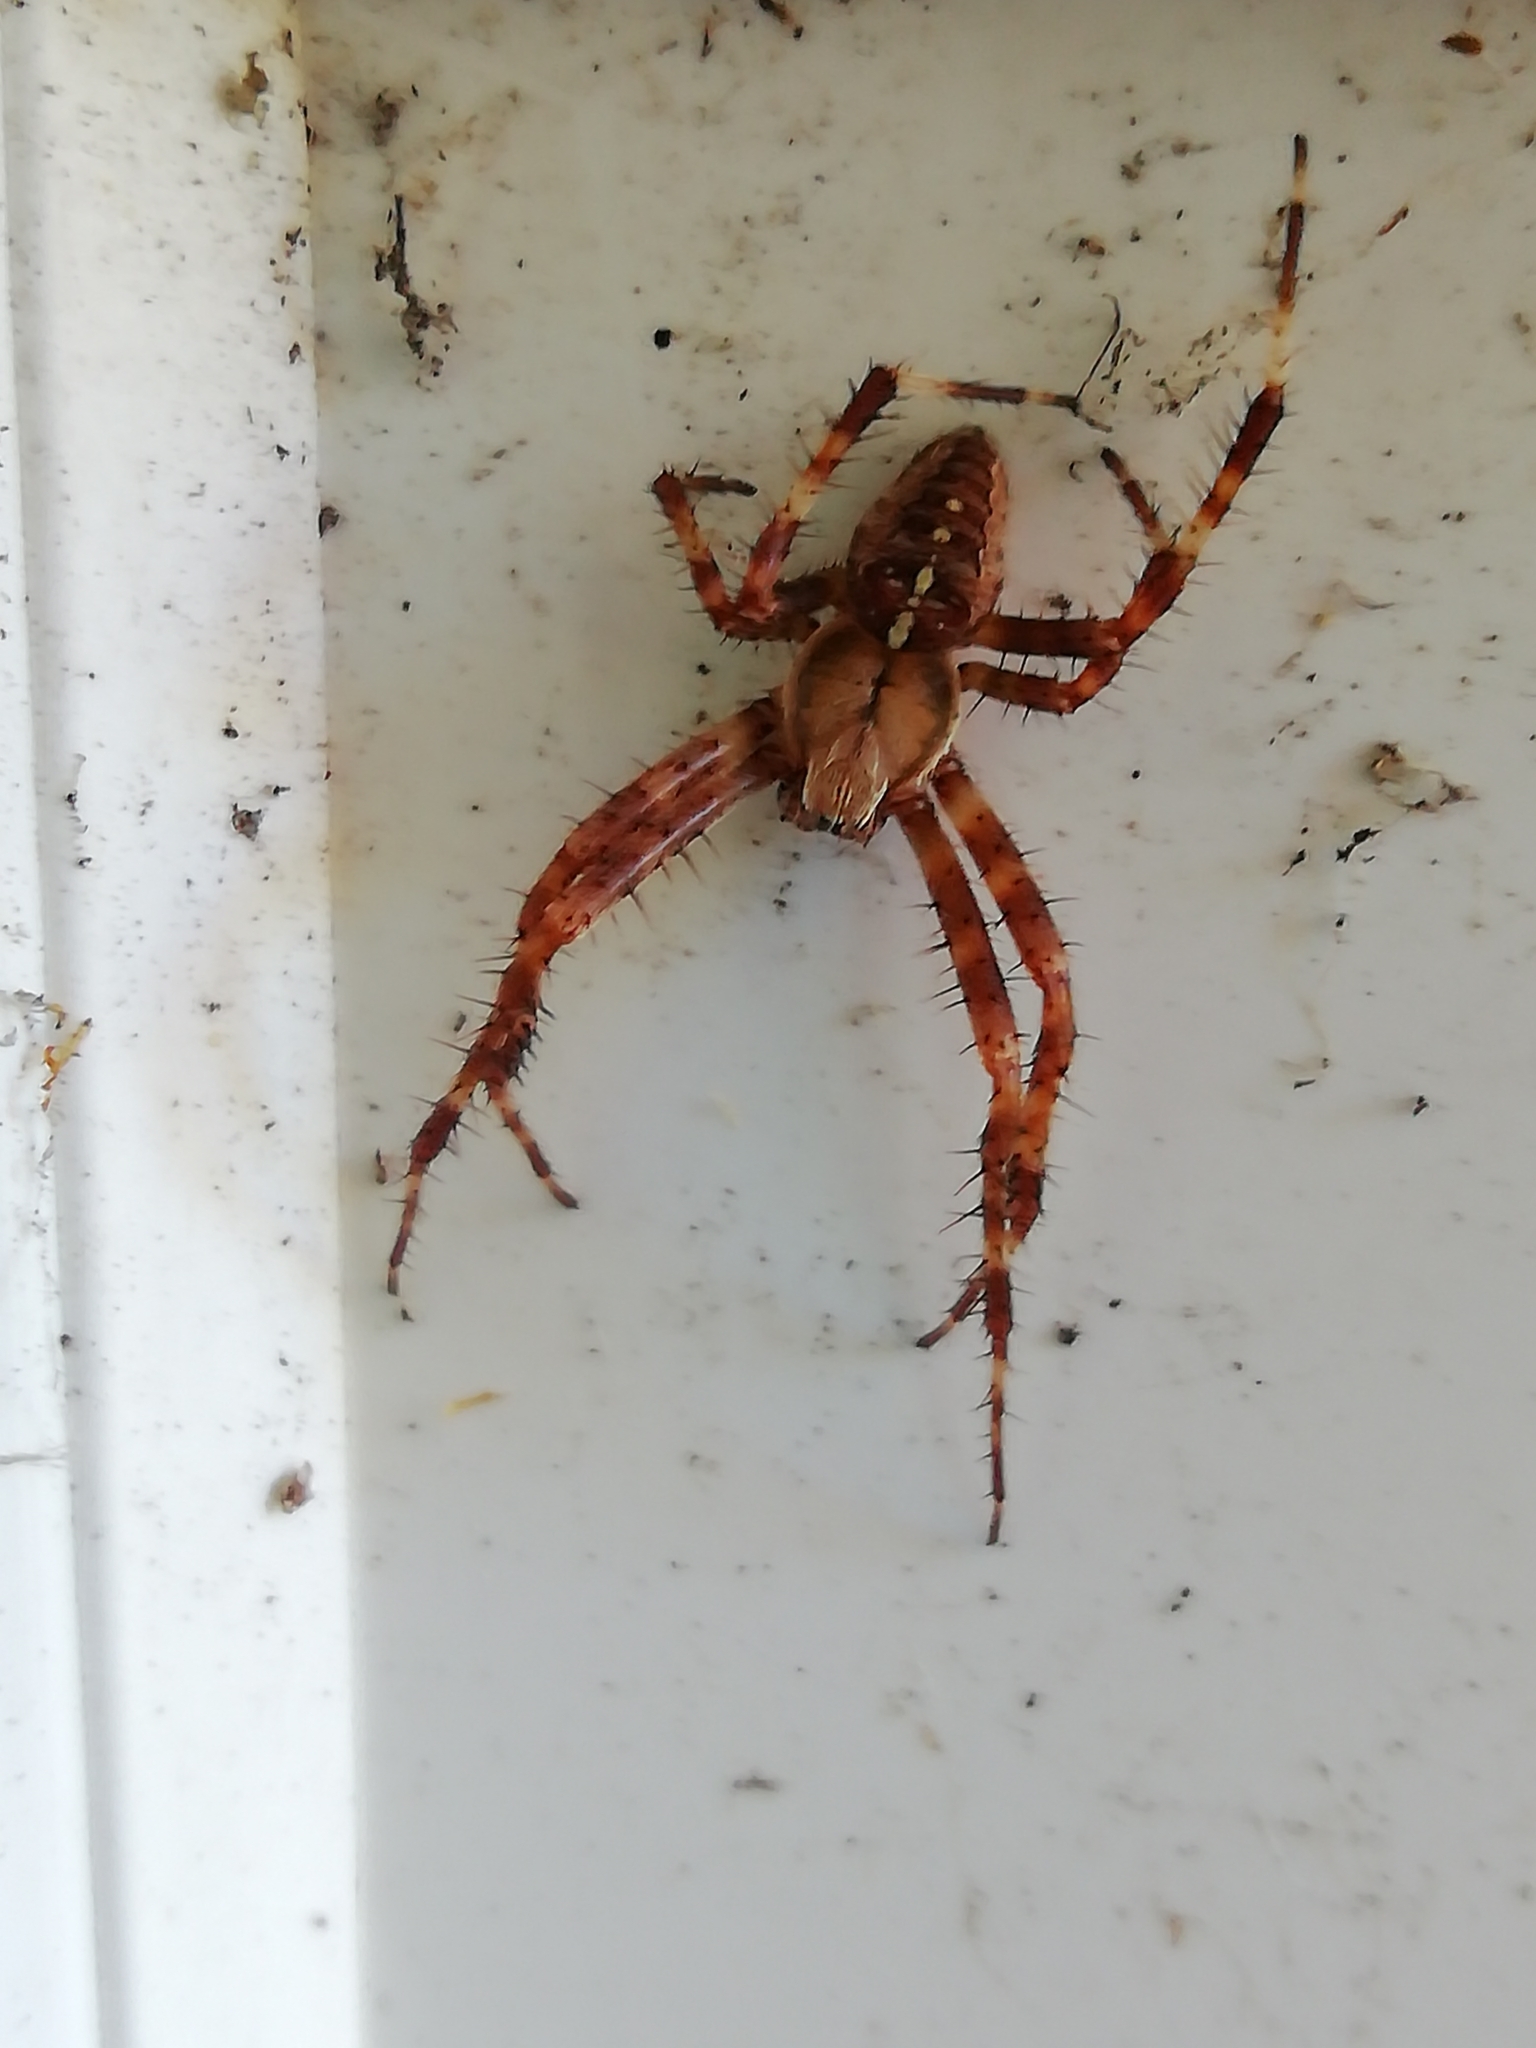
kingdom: Animalia
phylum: Arthropoda
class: Arachnida
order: Araneae
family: Araneidae
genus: Araneus
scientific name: Araneus diadematus
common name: Cross orbweaver
